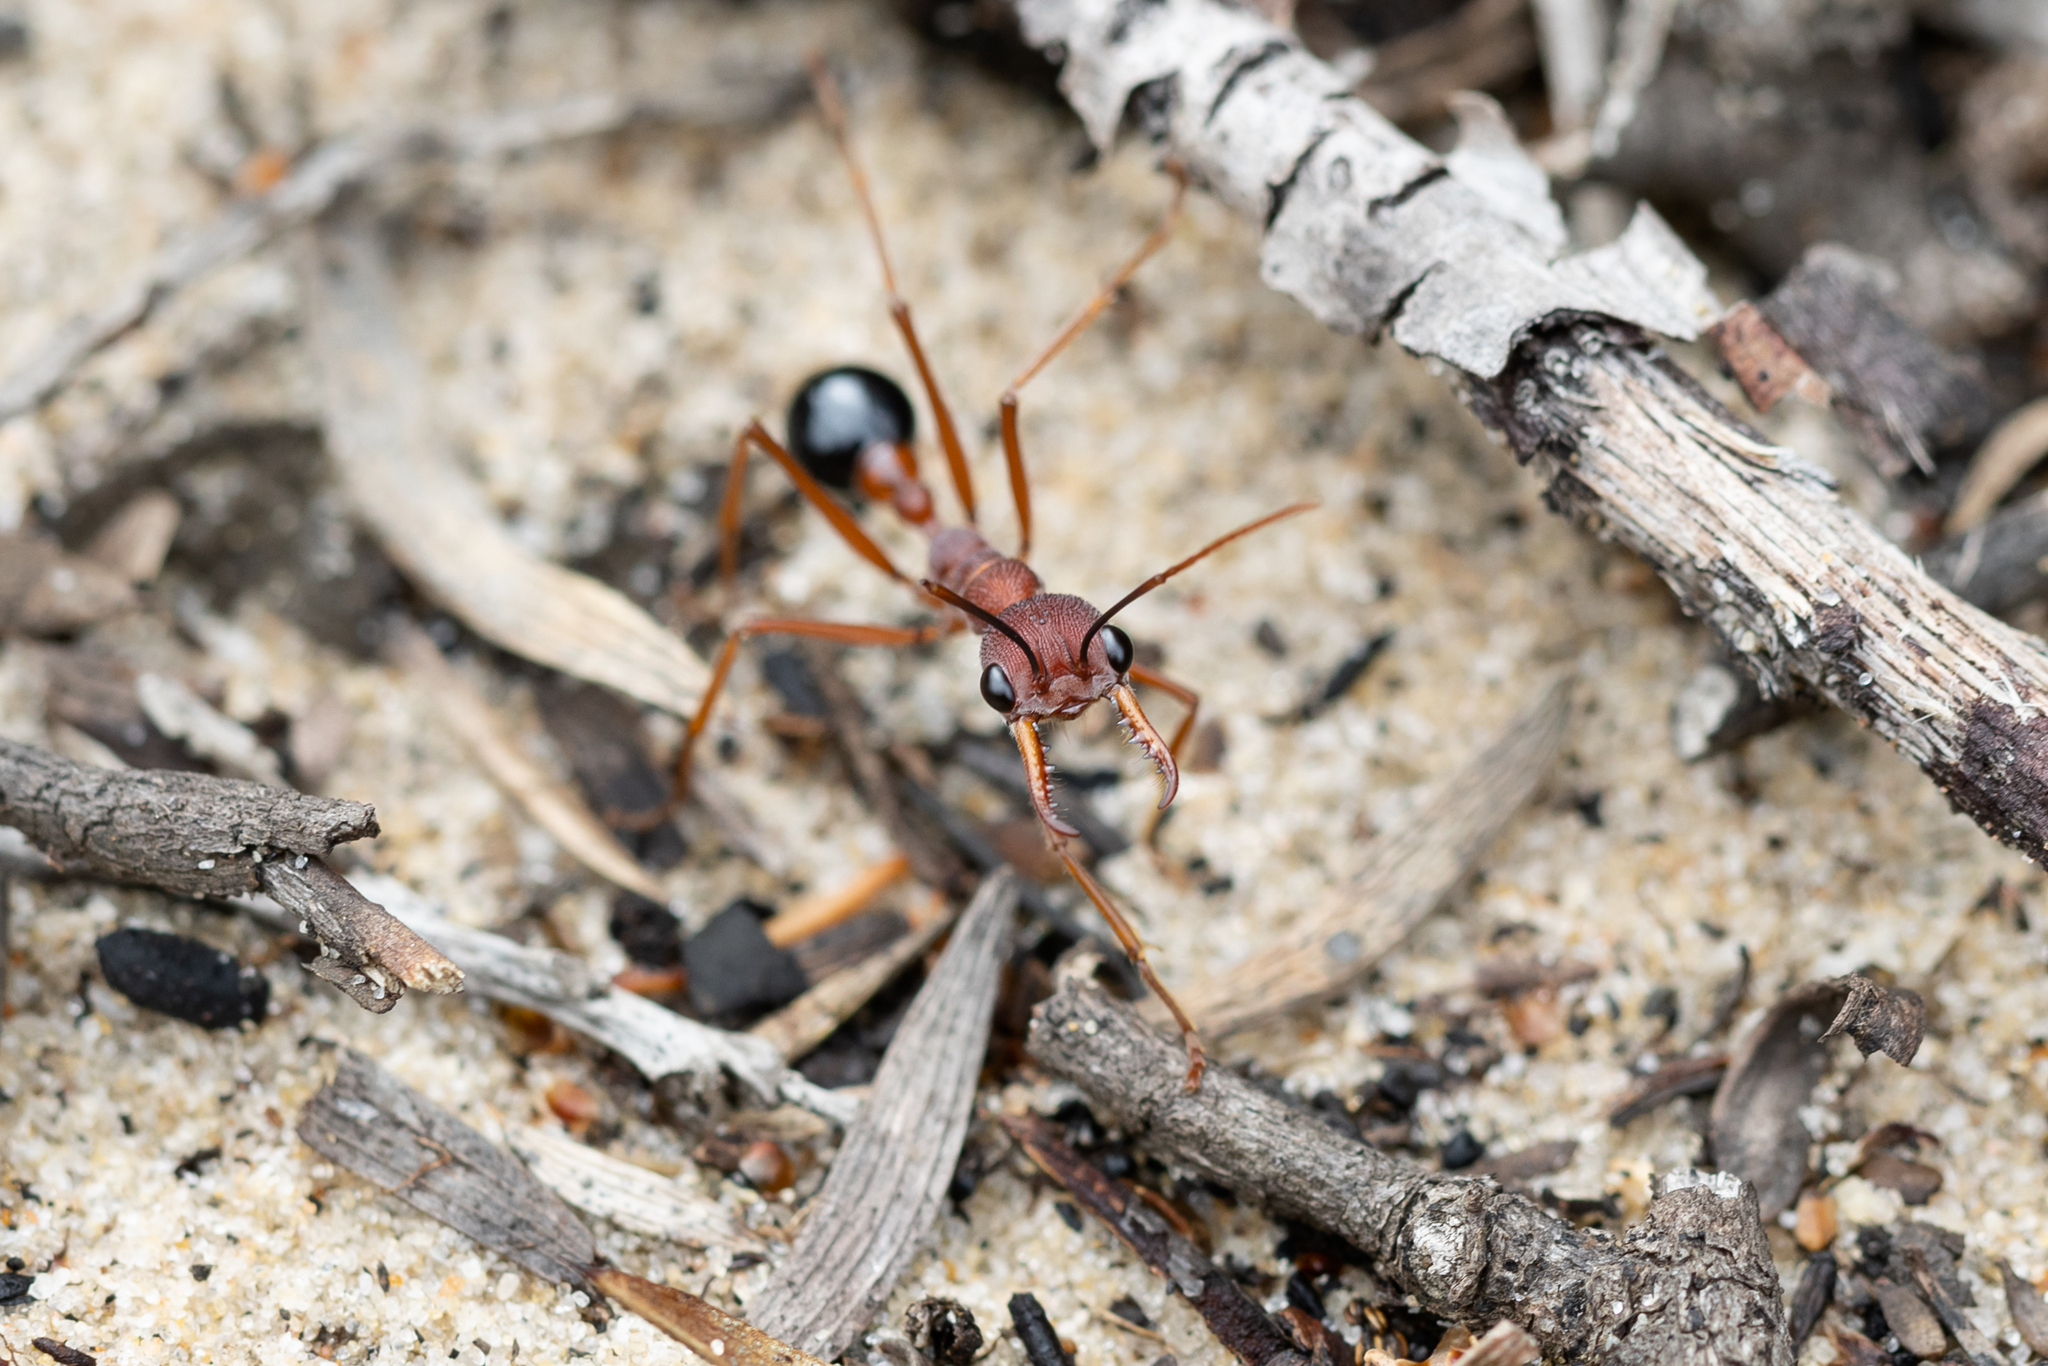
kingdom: Animalia
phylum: Arthropoda
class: Insecta
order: Hymenoptera
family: Formicidae
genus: Myrmecia
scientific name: Myrmecia analis
